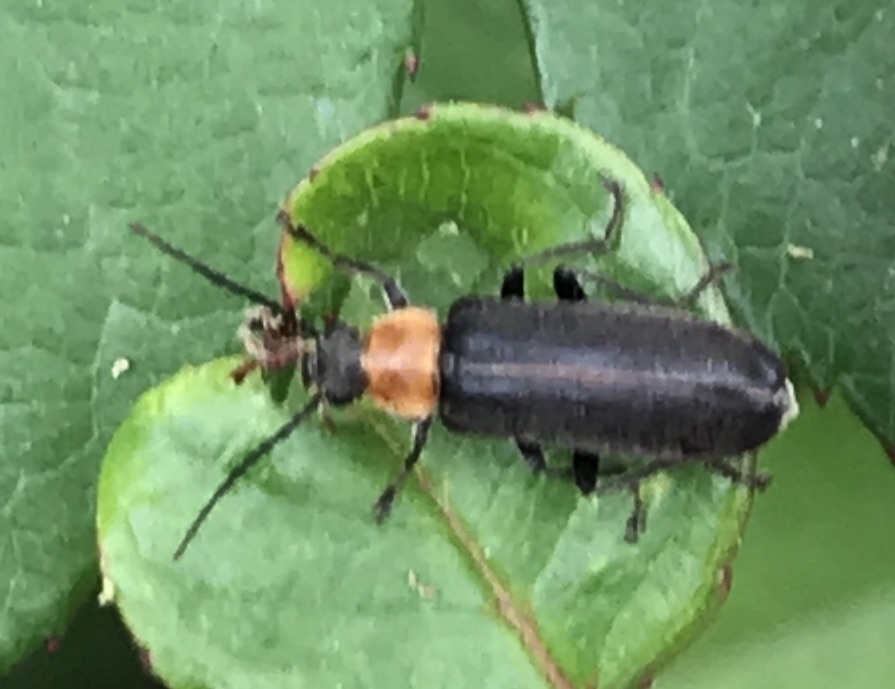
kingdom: Animalia
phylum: Arthropoda
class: Insecta
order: Coleoptera
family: Melandryidae
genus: Osphya
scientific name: Osphya varians
